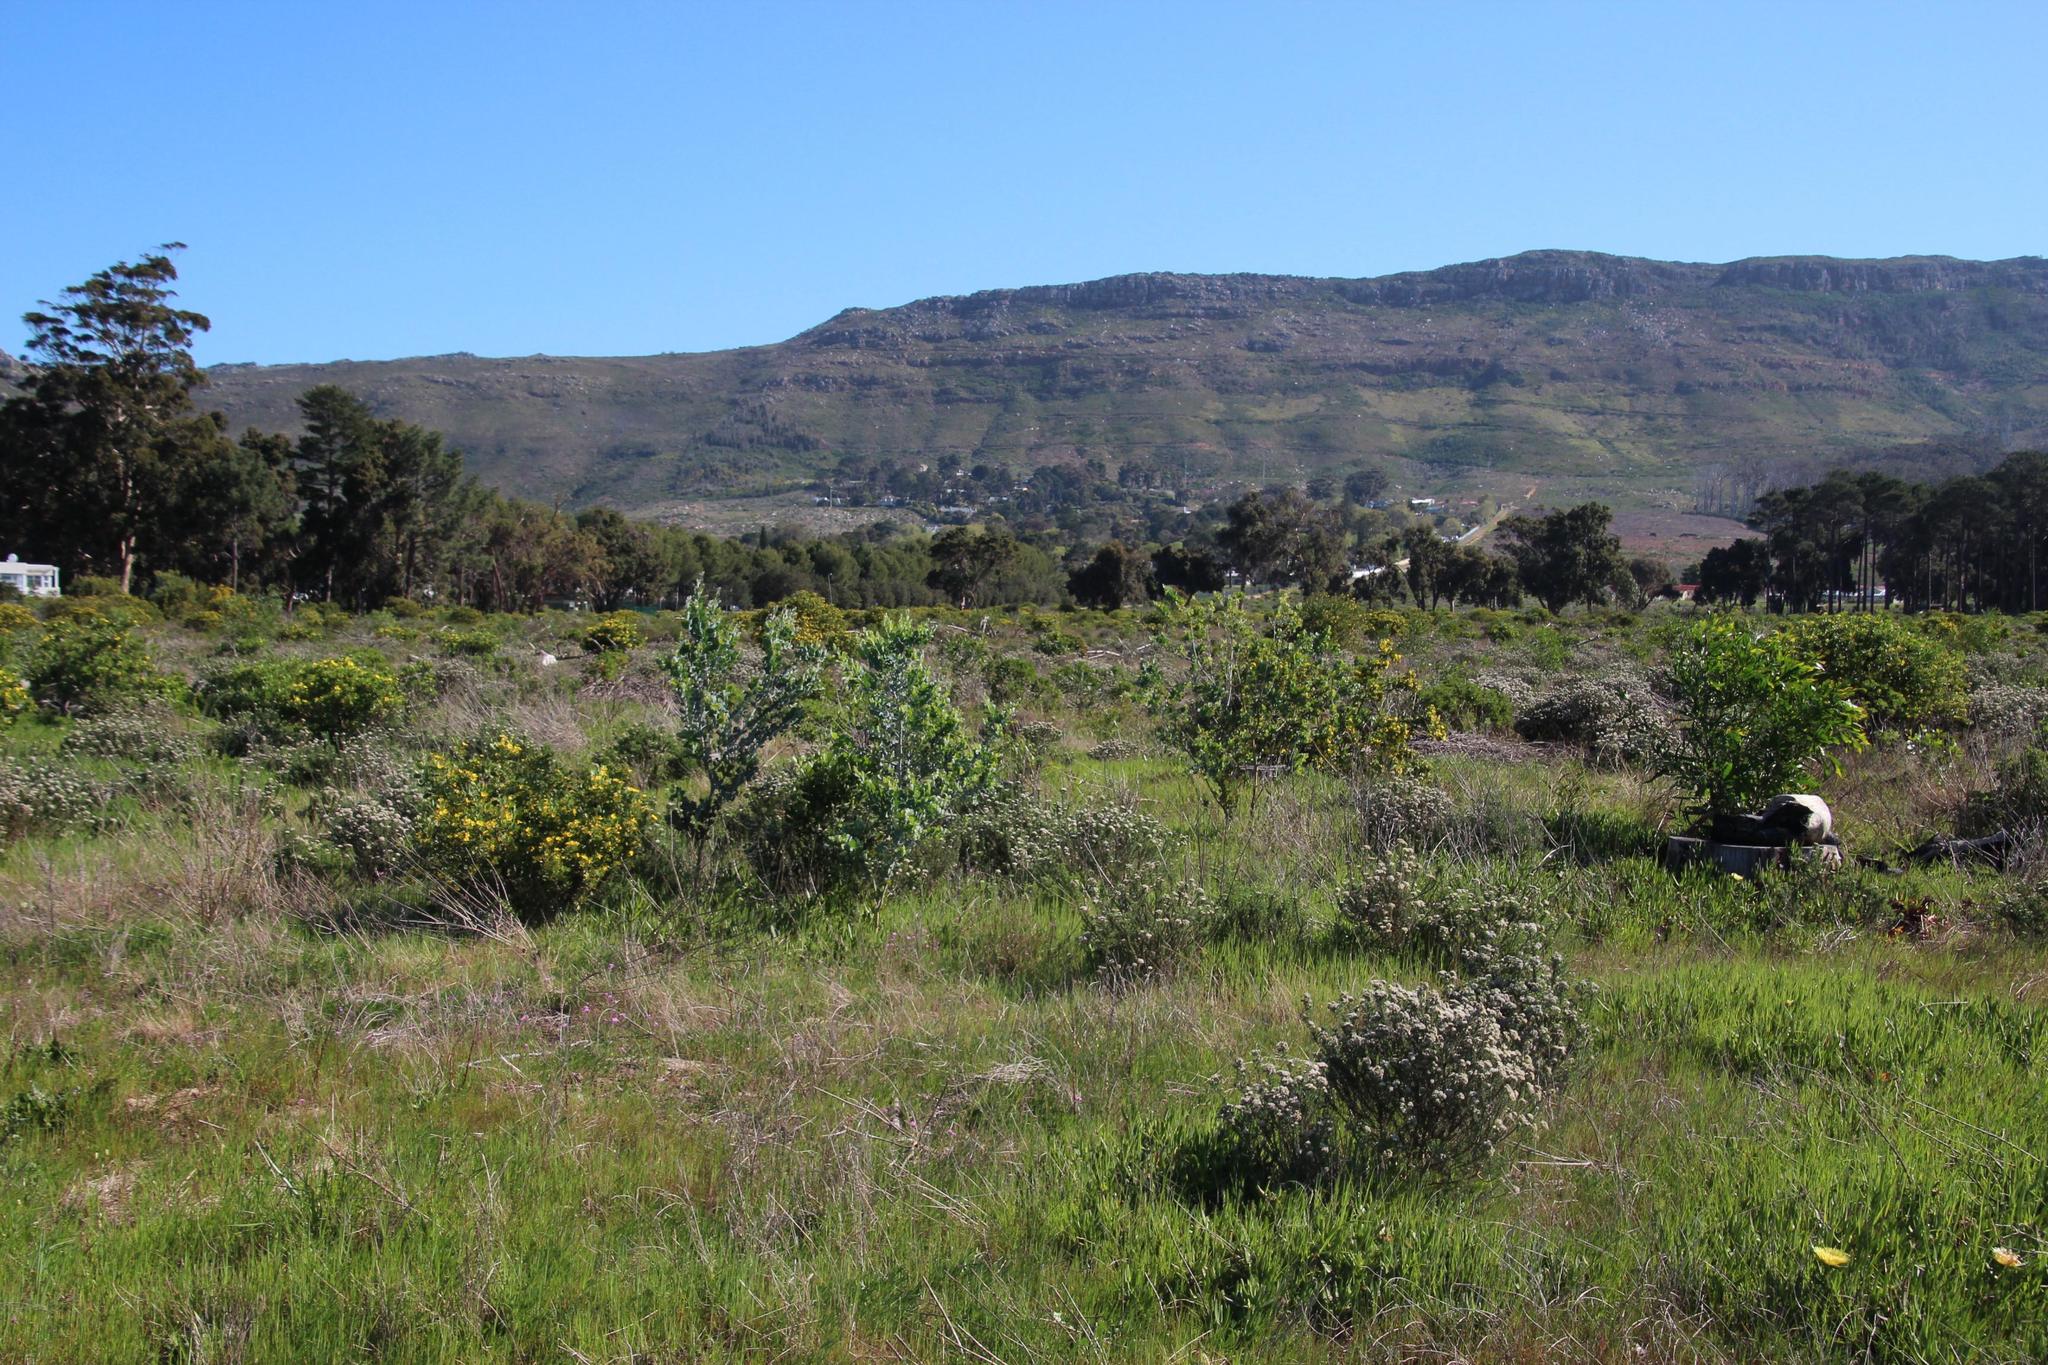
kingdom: Plantae
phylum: Tracheophyta
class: Magnoliopsida
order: Fabales
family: Fabaceae
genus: Acacia
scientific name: Acacia podalyriifolia
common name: Pearl wattle
